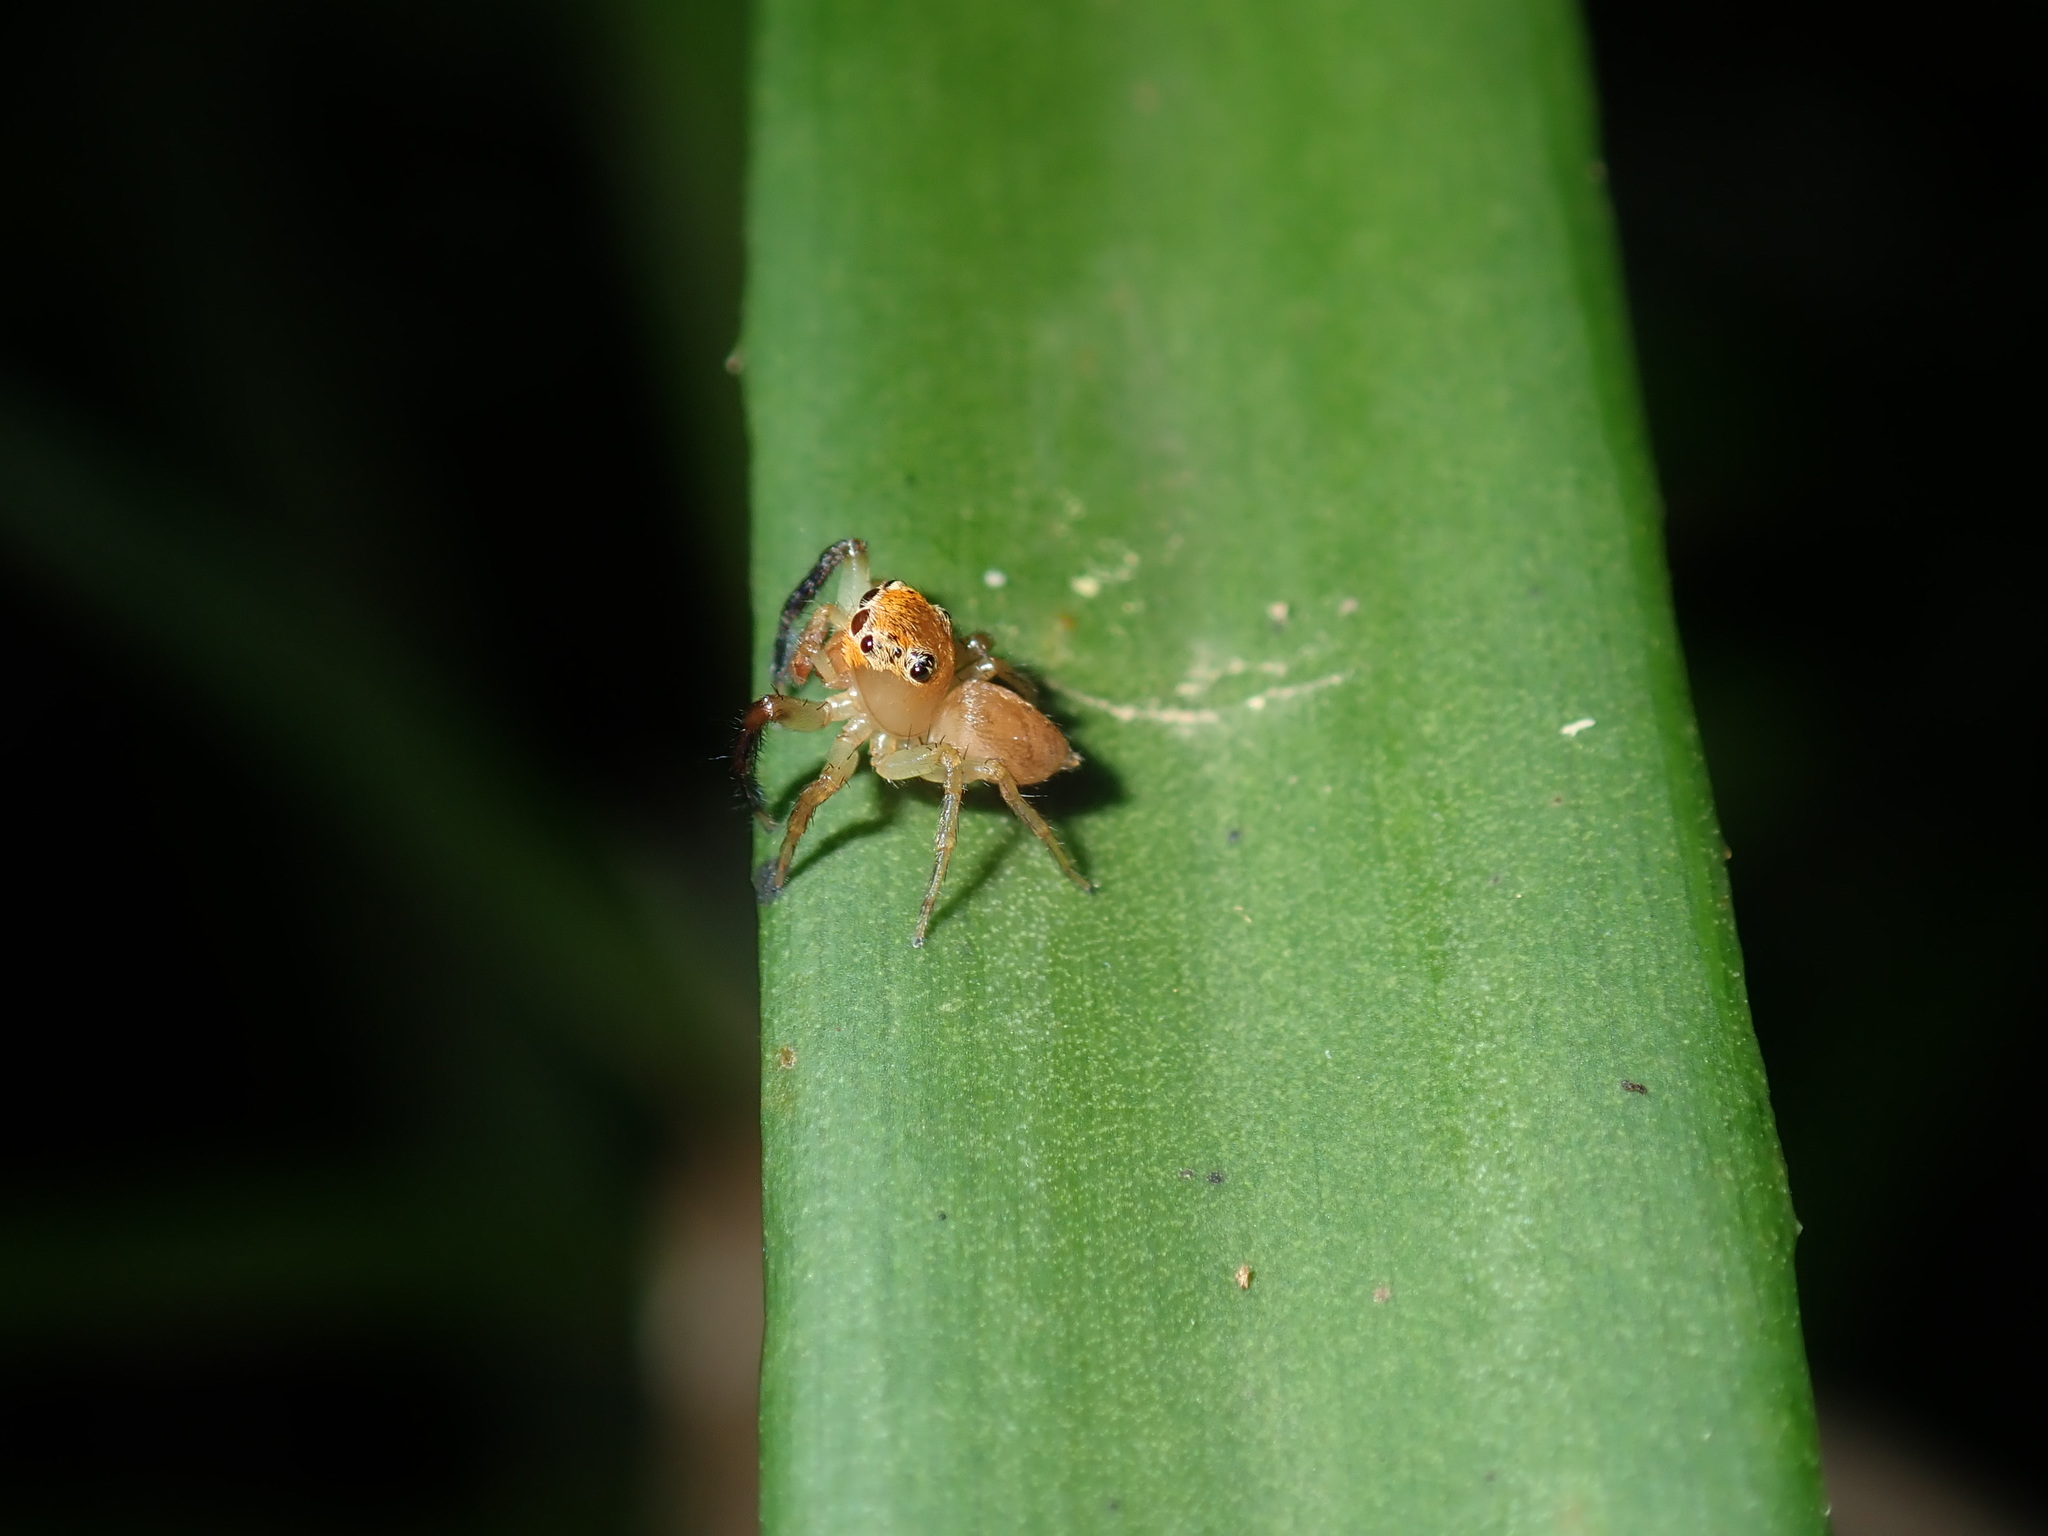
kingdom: Animalia
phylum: Arthropoda
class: Arachnida
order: Araneae
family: Salticidae
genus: Prostheclina
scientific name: Prostheclina pallida
